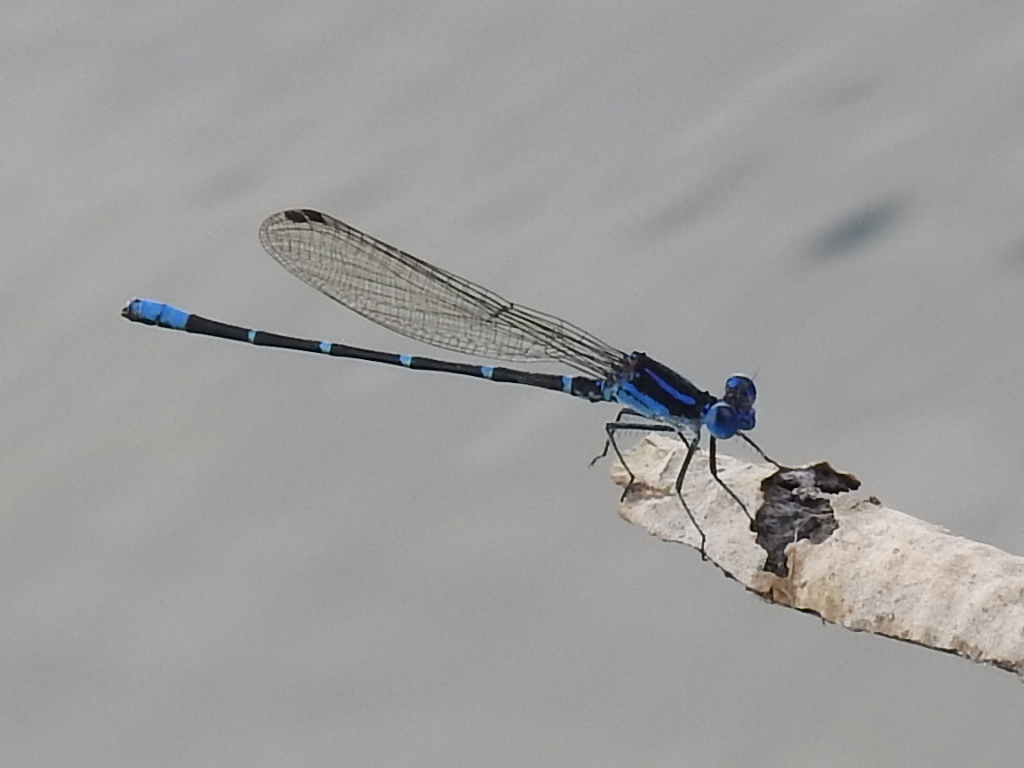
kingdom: Animalia
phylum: Arthropoda
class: Insecta
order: Odonata
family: Coenagrionidae
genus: Argia
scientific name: Argia sedula
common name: Blue-ringed dancer
